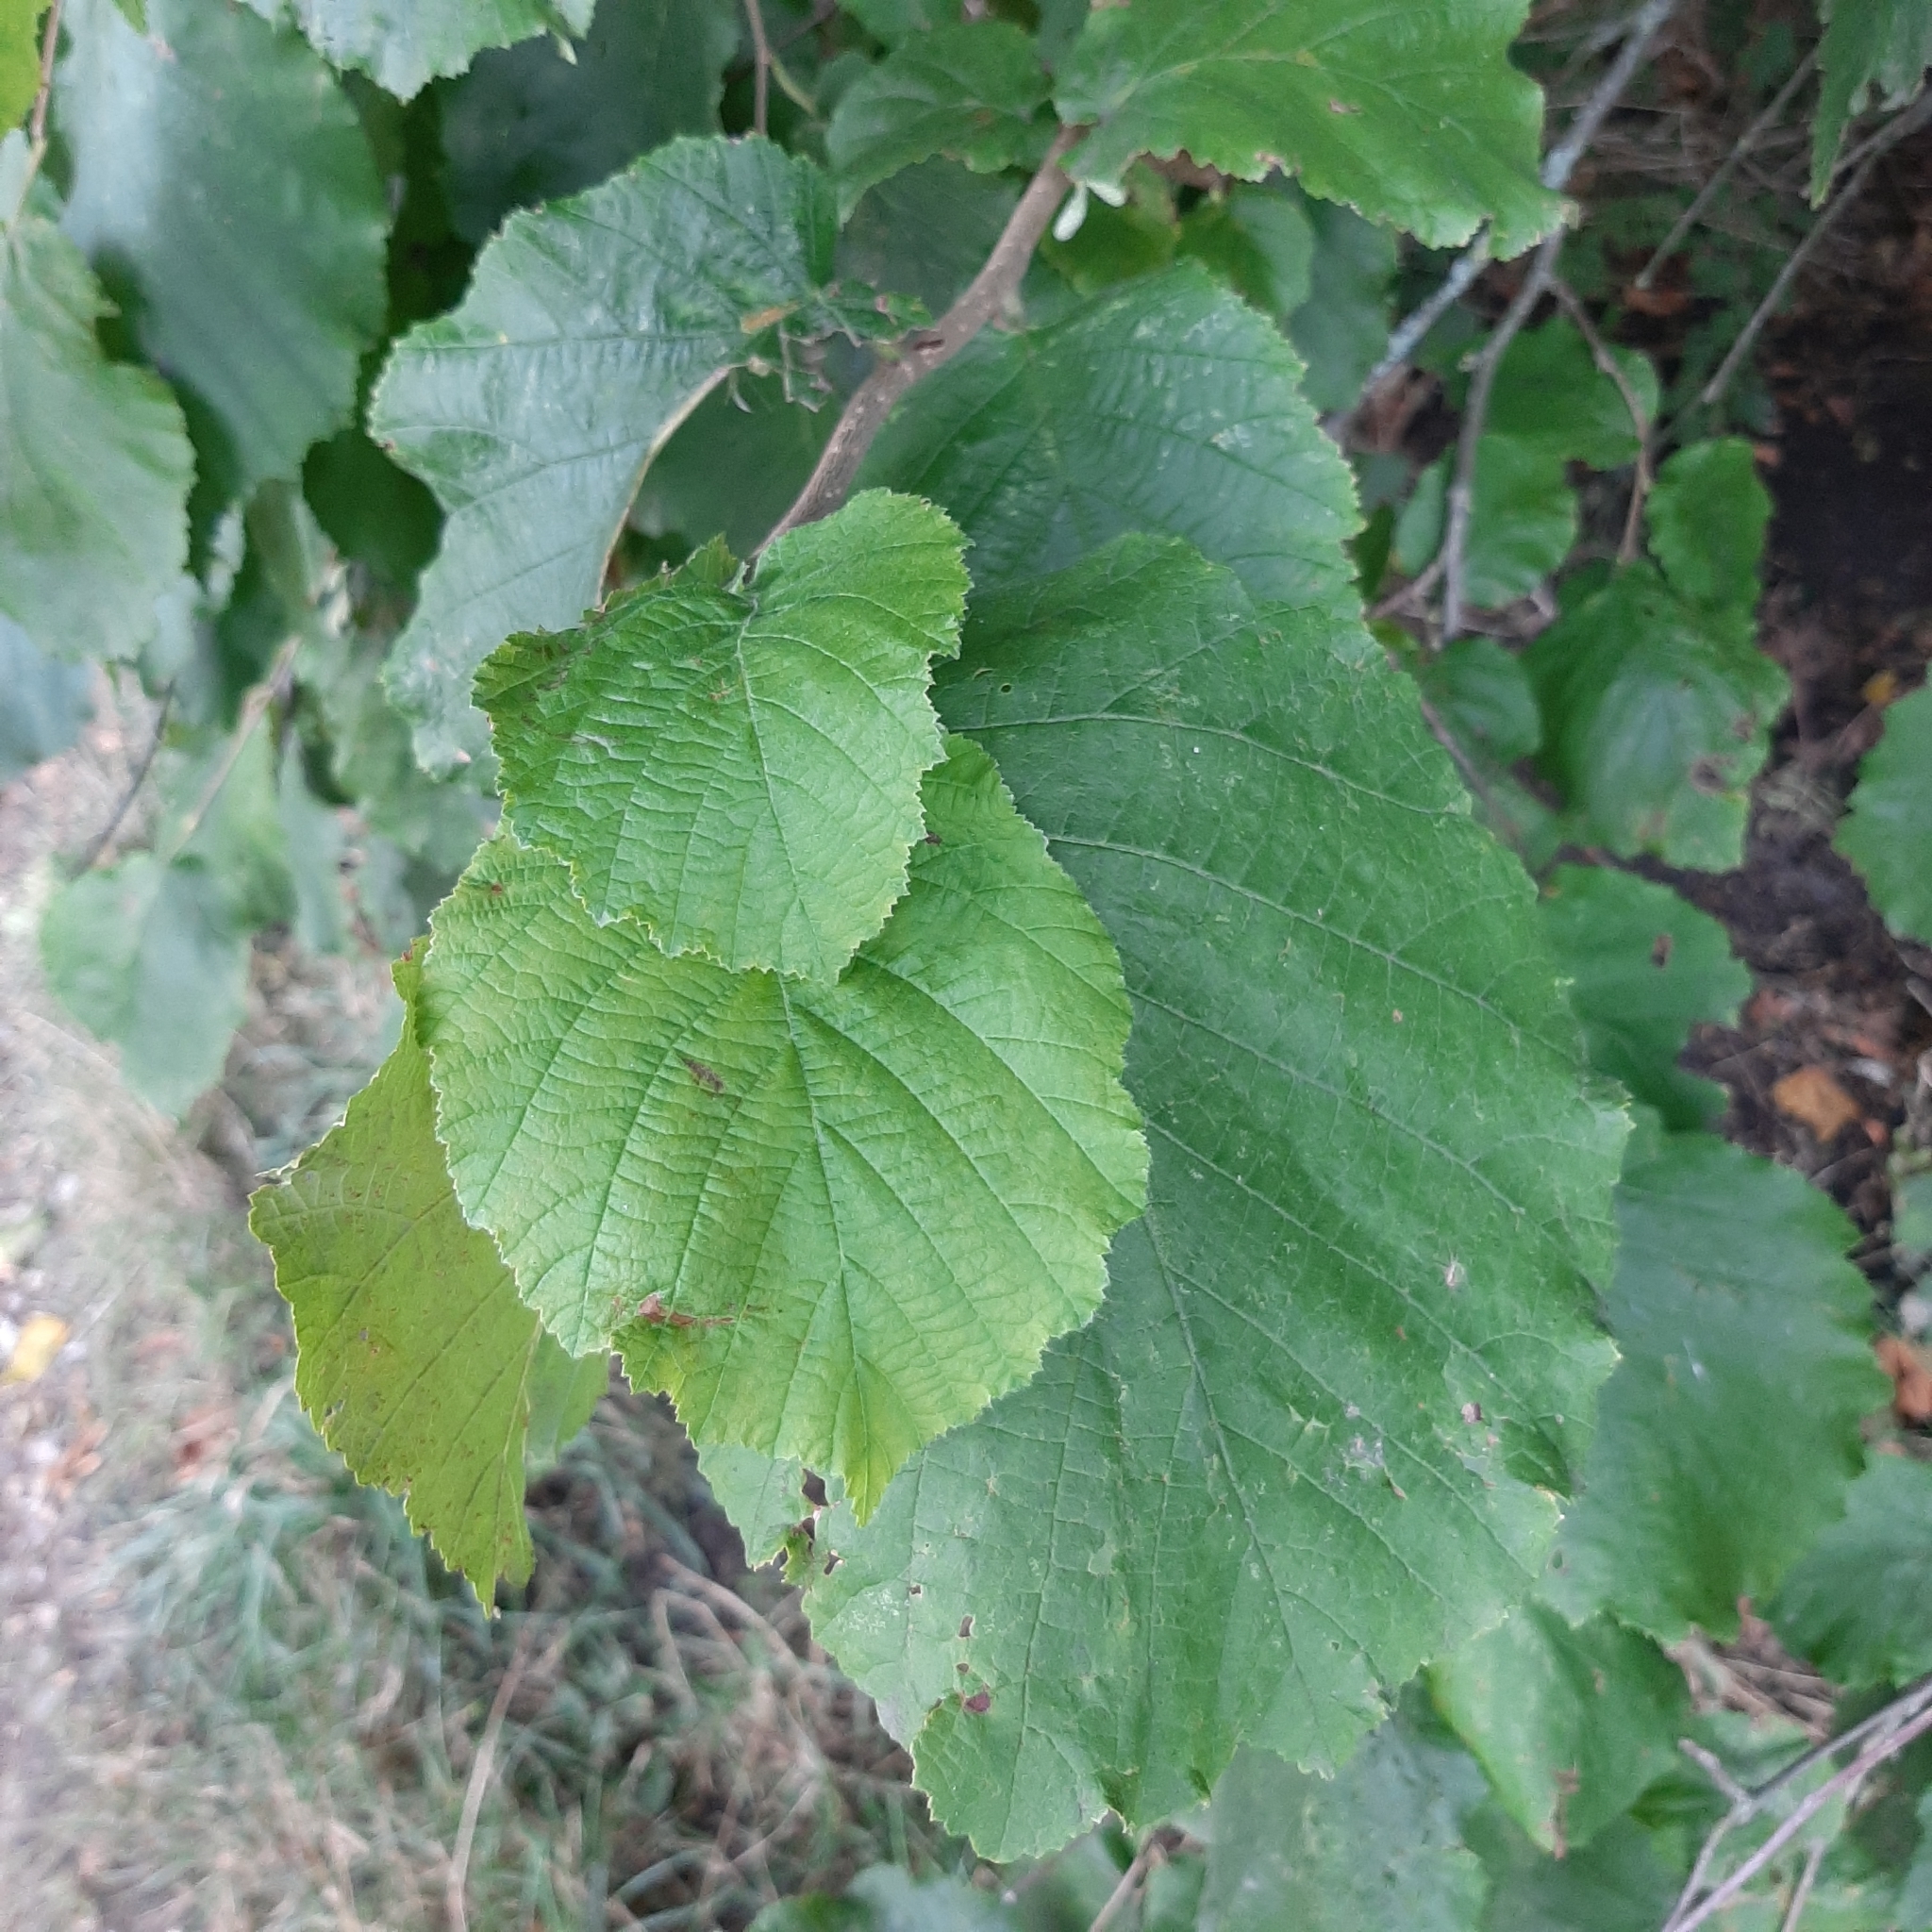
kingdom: Plantae
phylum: Tracheophyta
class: Magnoliopsida
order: Fagales
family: Betulaceae
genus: Corylus
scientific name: Corylus avellana
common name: European hazel
